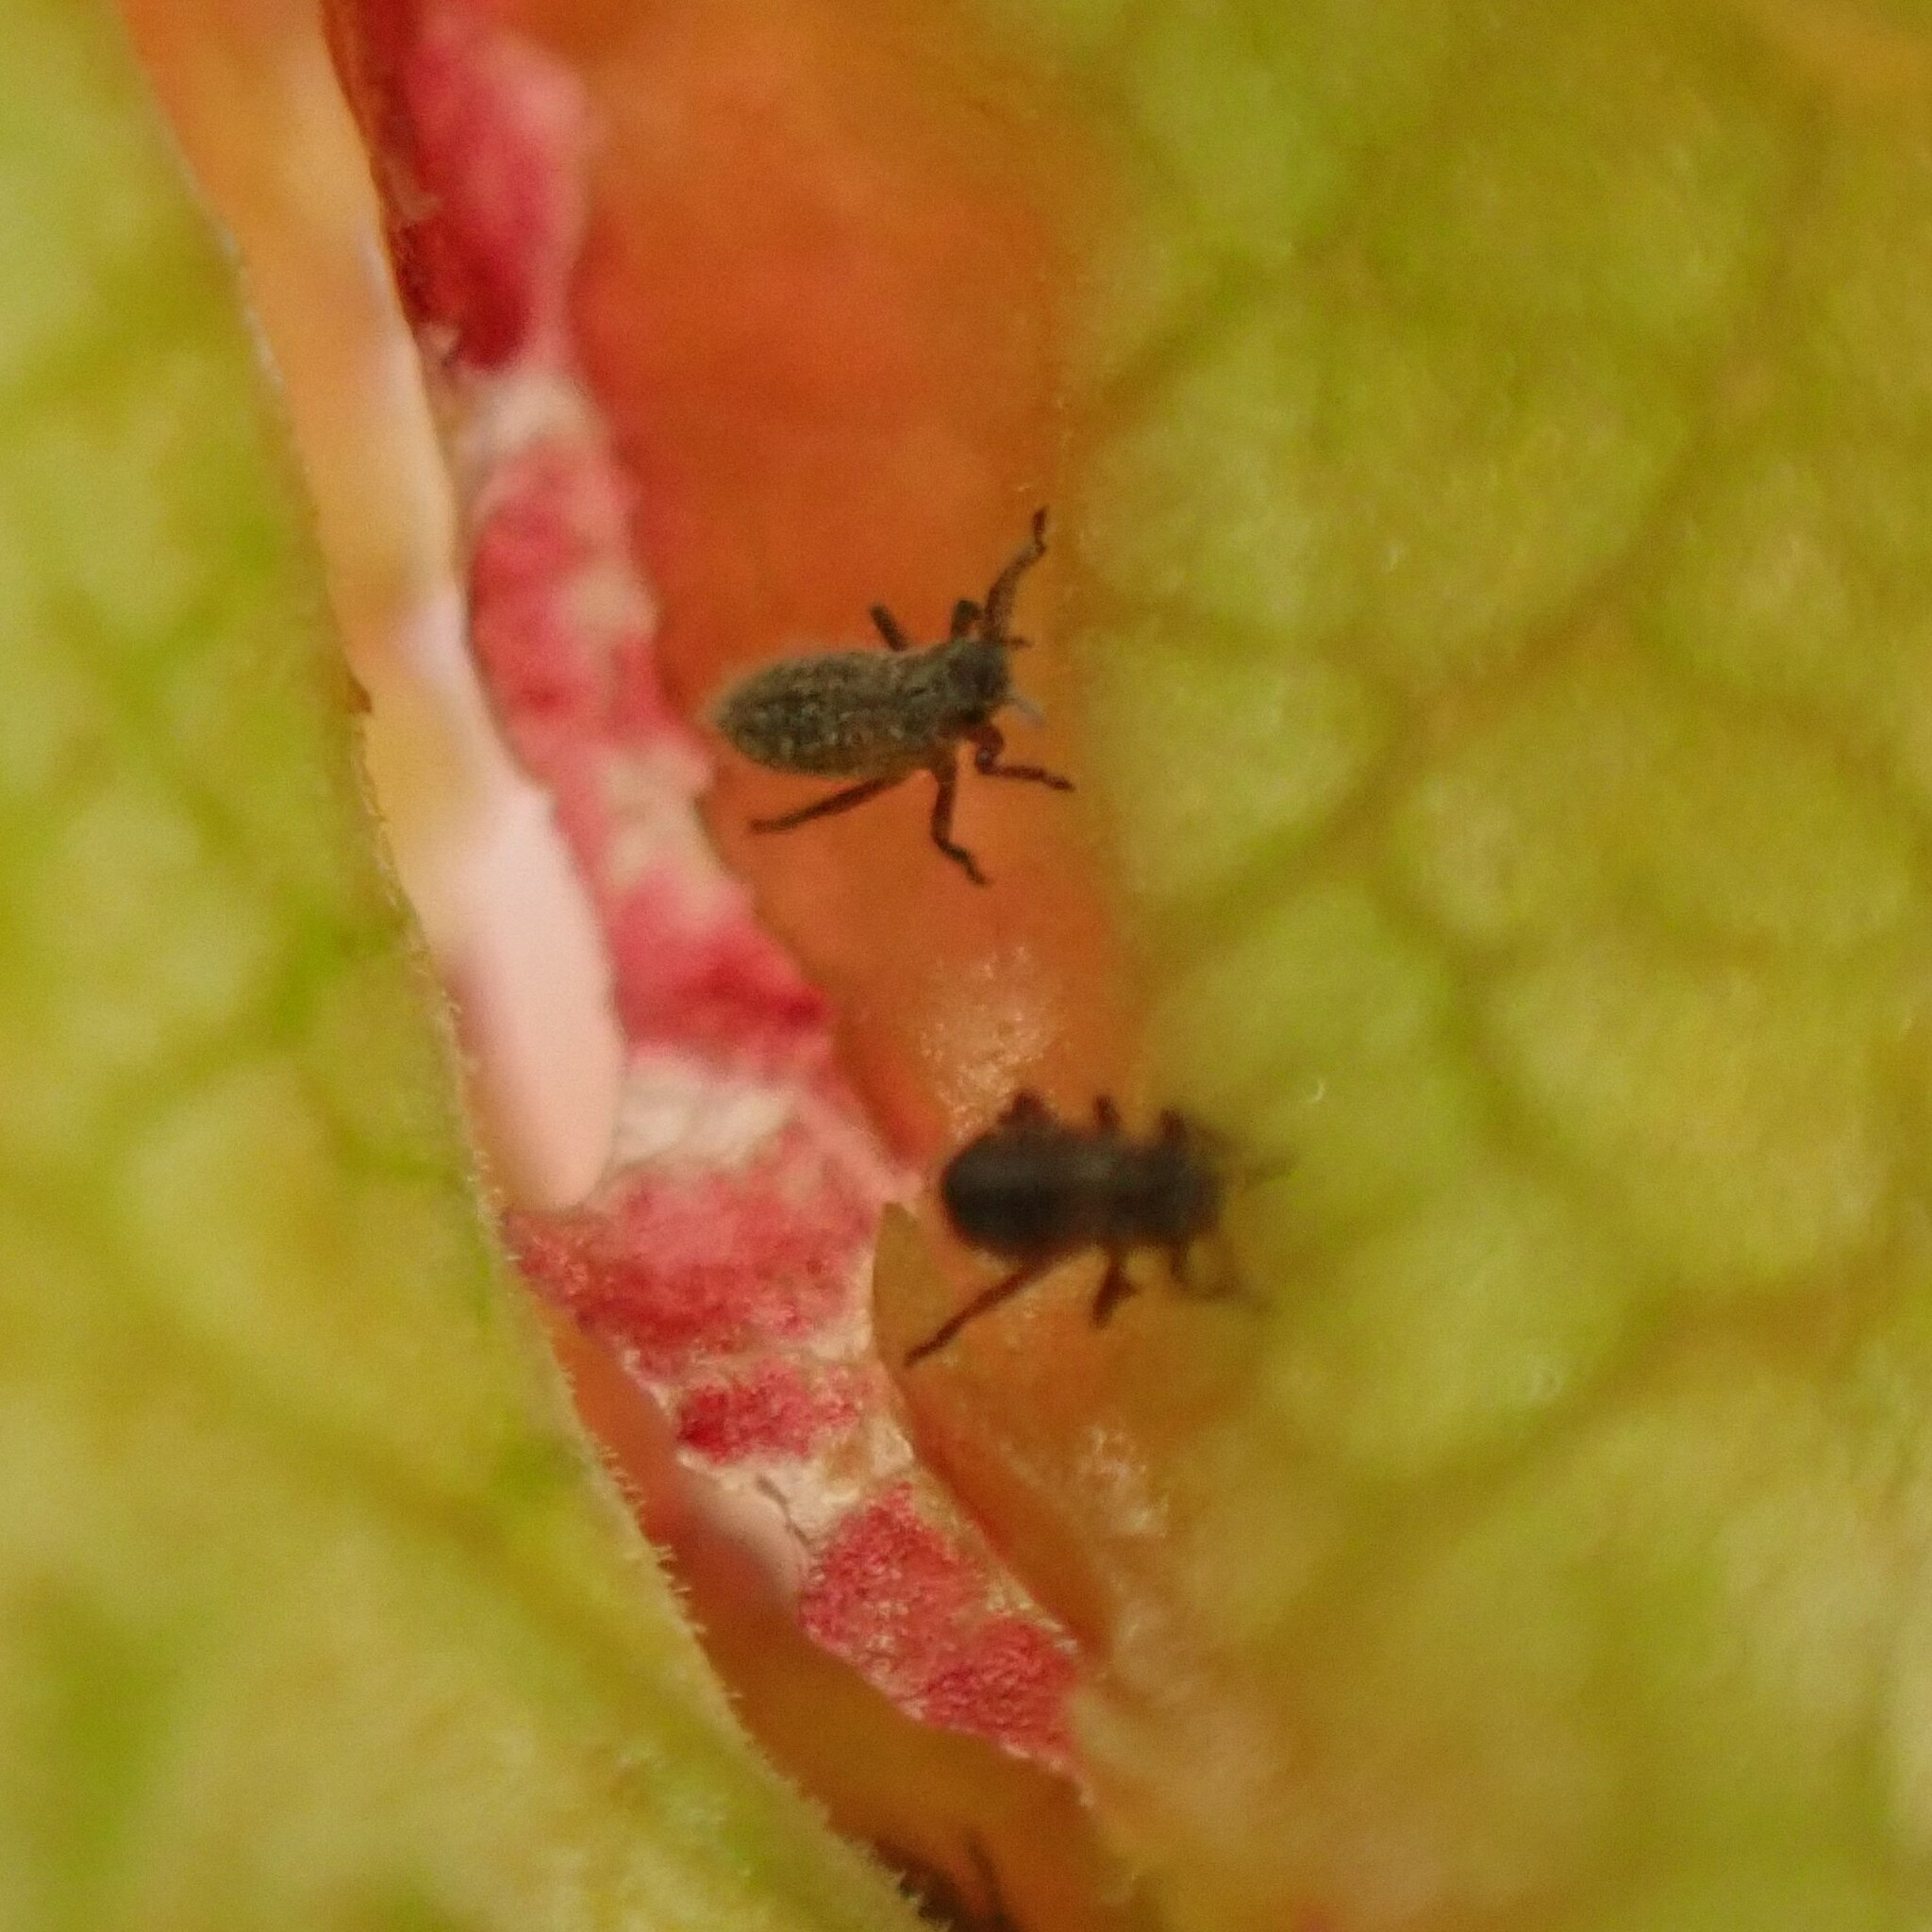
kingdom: Animalia
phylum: Arthropoda
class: Insecta
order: Hemiptera
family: Aphididae
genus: Thecabius
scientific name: Thecabius populimonilis
